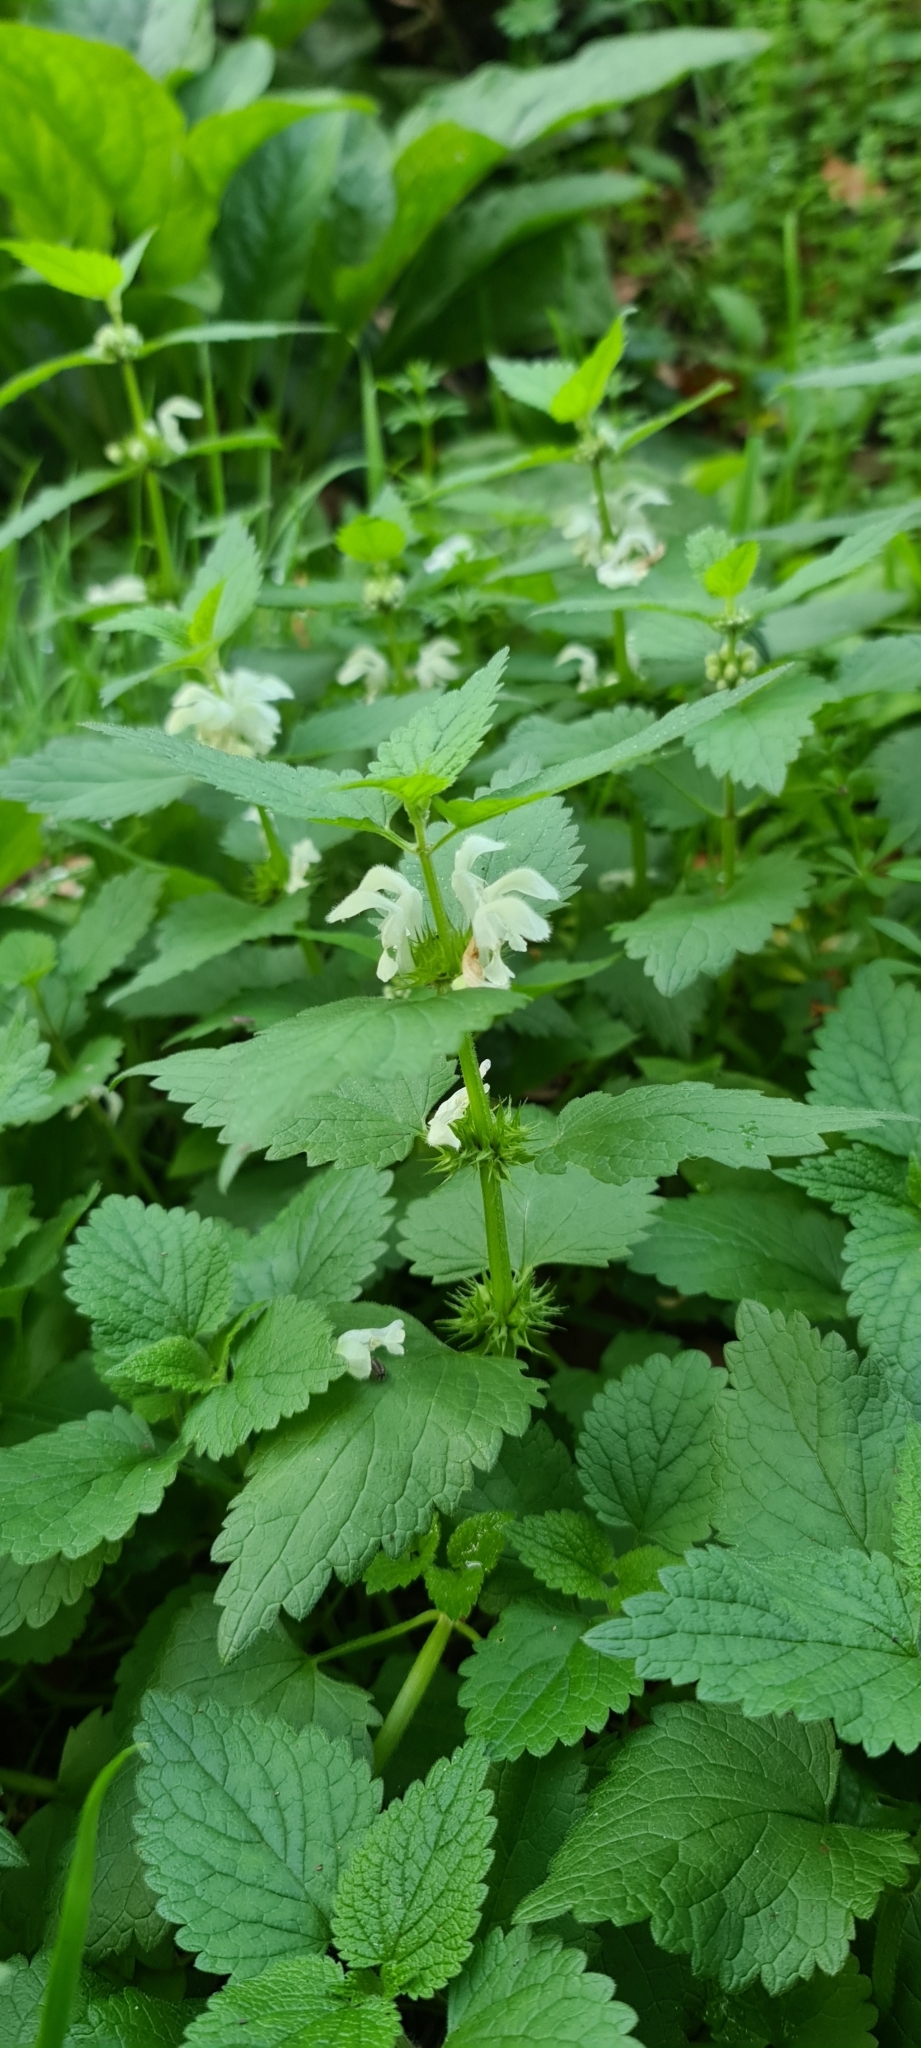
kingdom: Plantae
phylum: Tracheophyta
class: Magnoliopsida
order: Lamiales
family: Lamiaceae
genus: Lamium
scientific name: Lamium album
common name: White dead-nettle
